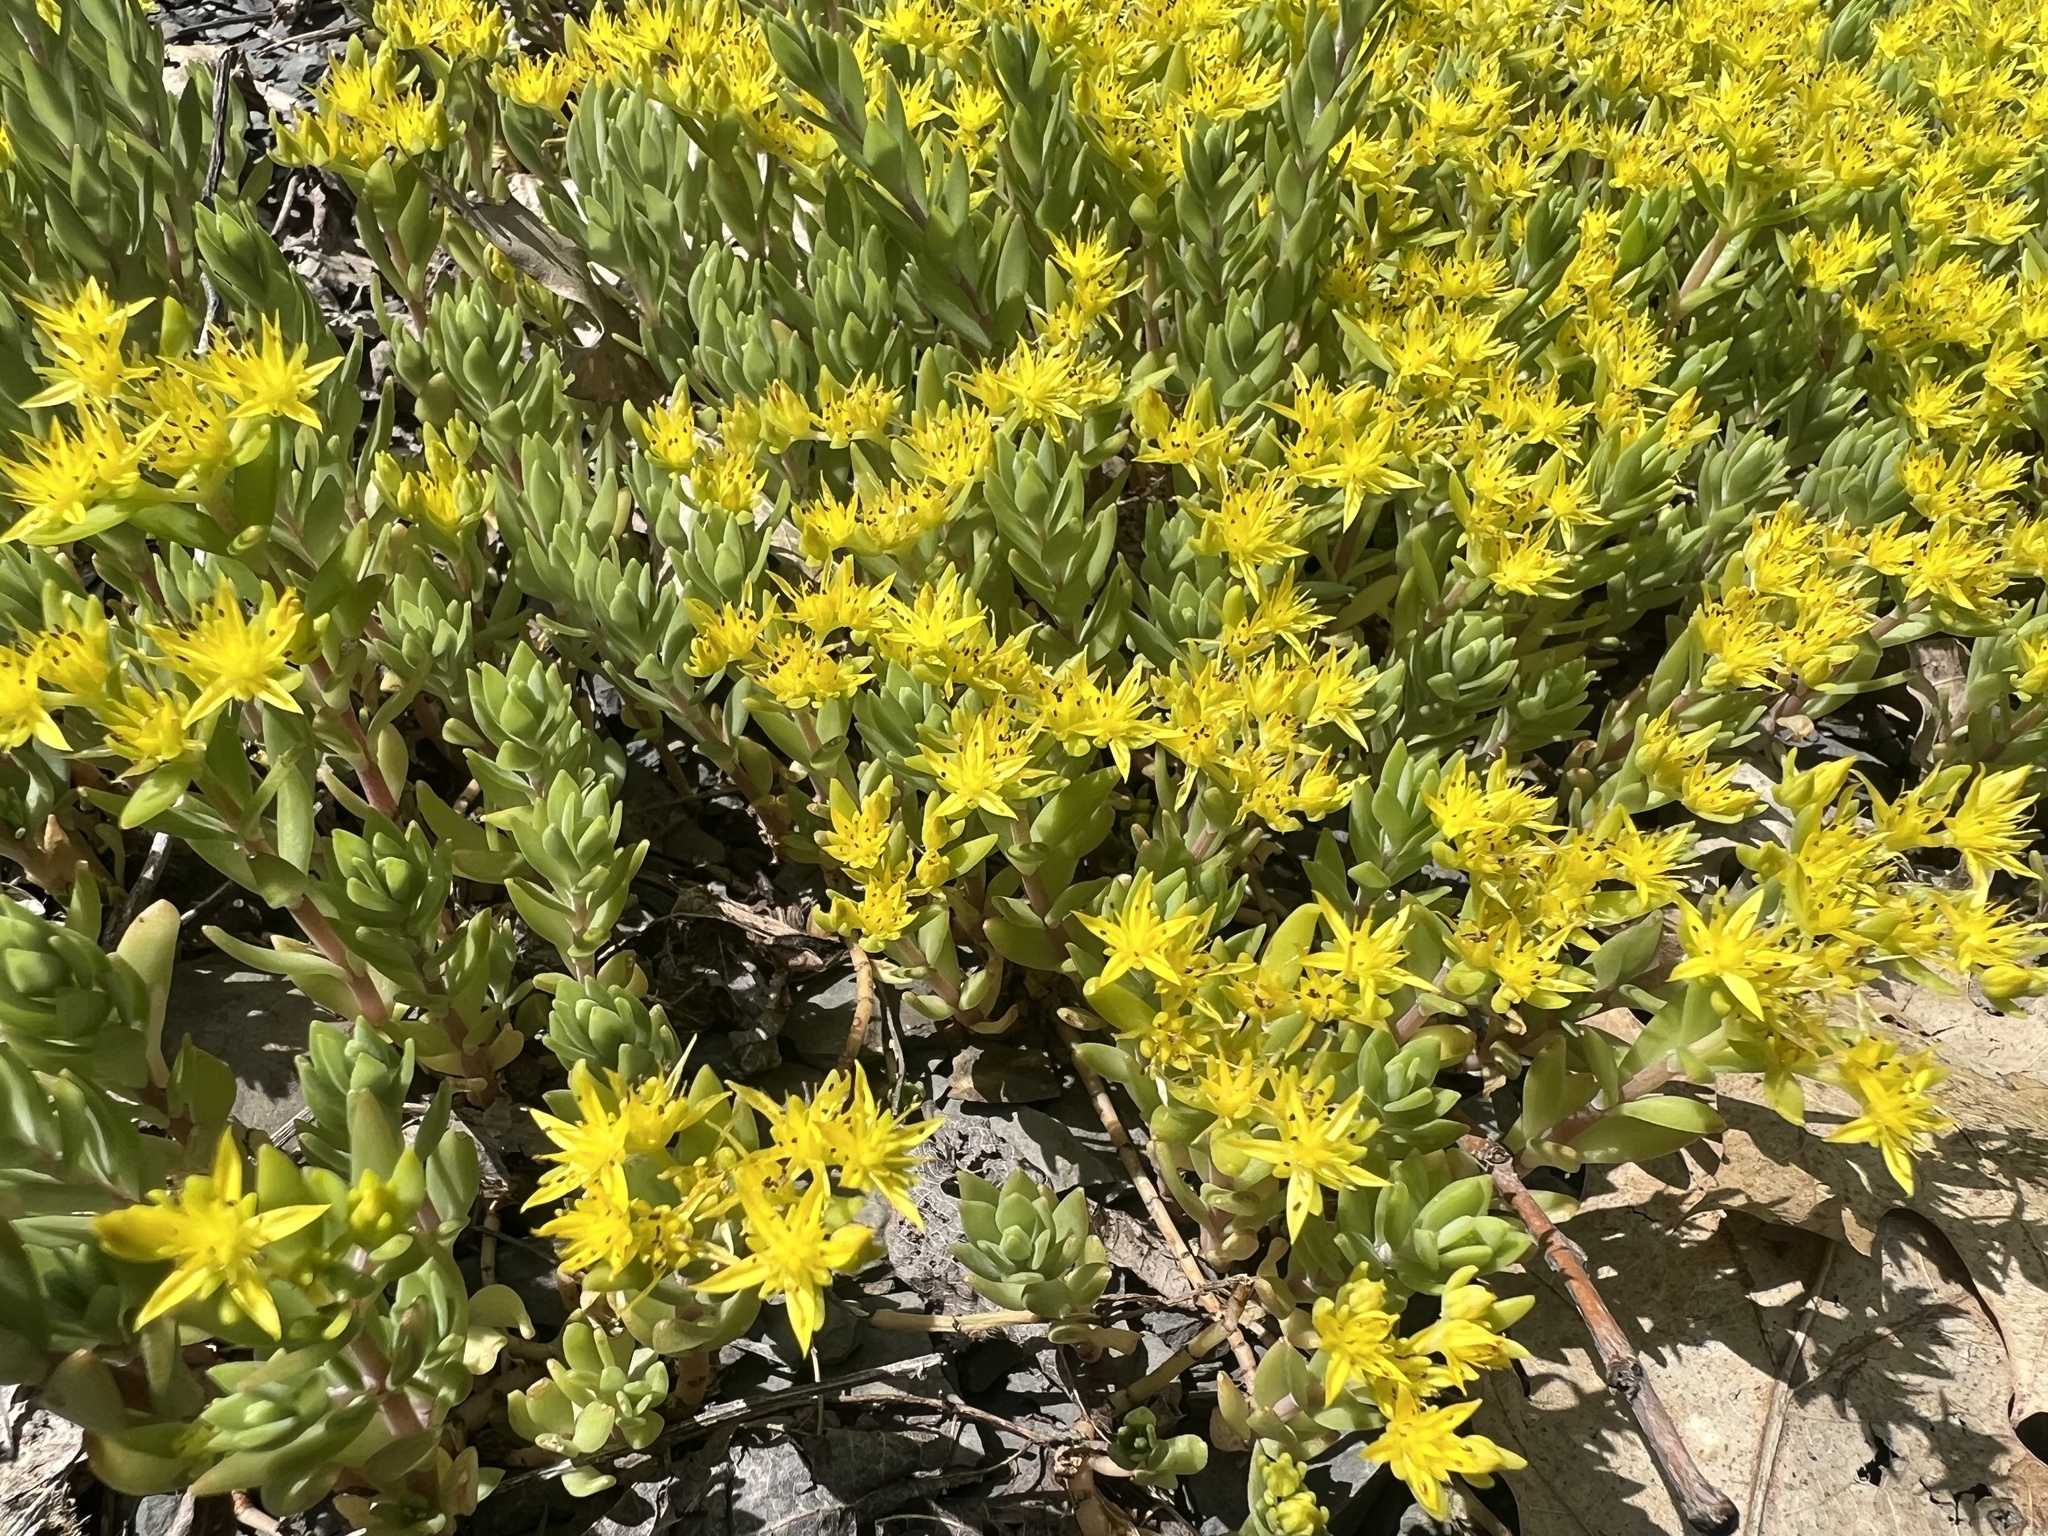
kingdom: Plantae
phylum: Tracheophyta
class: Magnoliopsida
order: Saxifragales
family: Crassulaceae
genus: Sedum
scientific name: Sedum sarmentosum
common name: Stringy stonecrop
